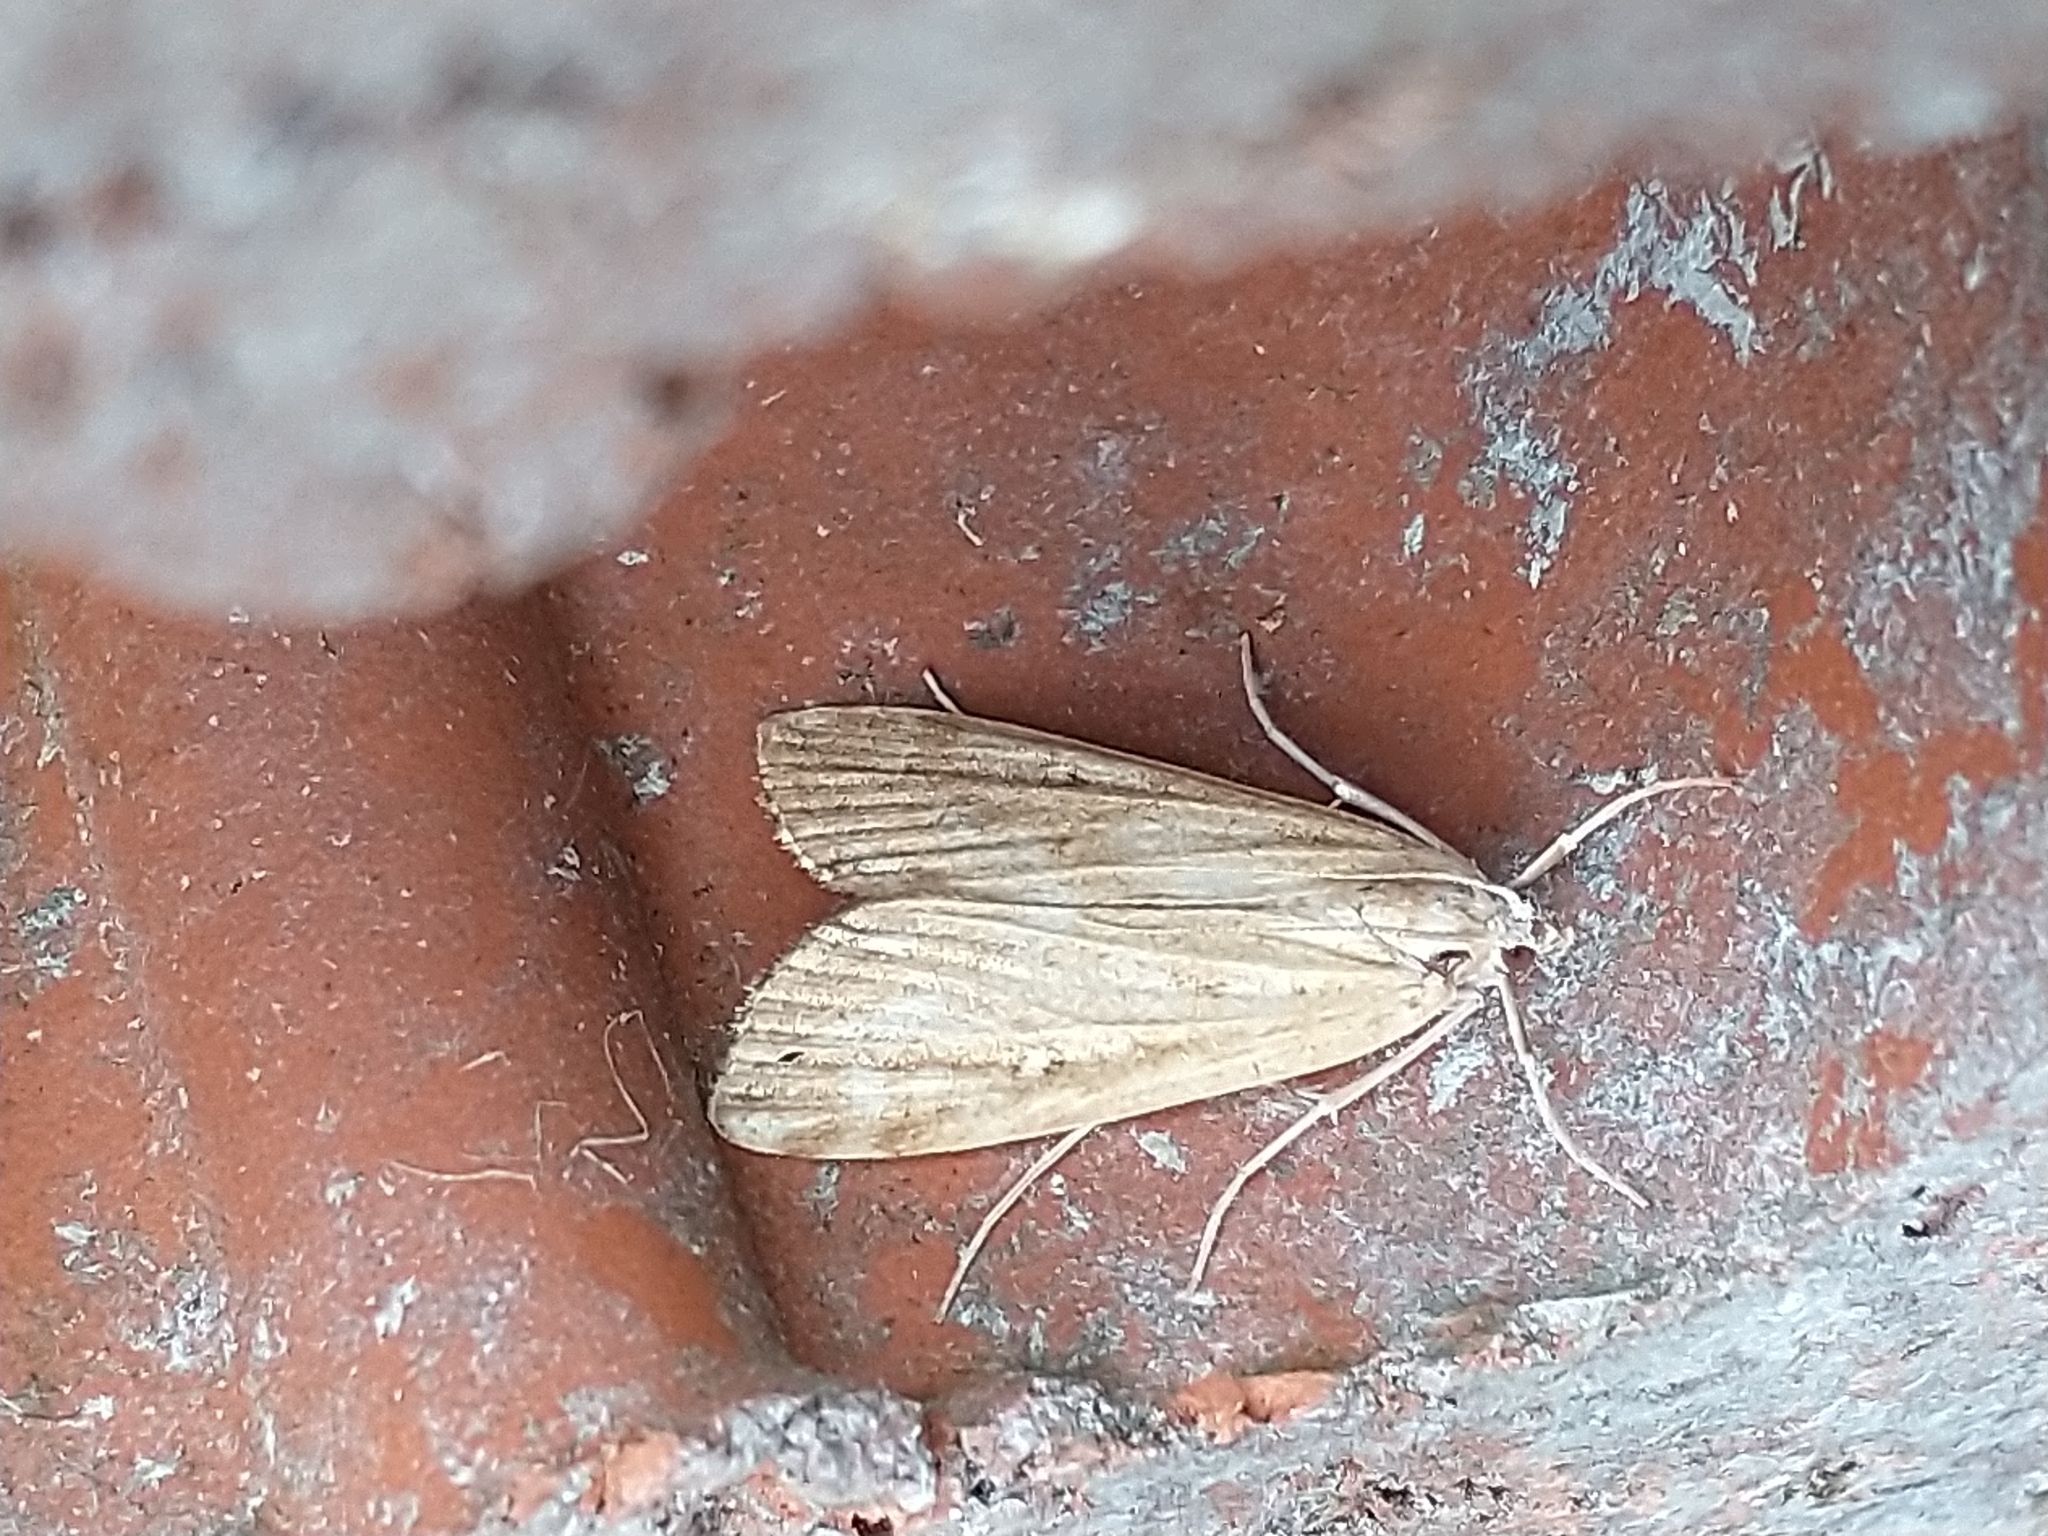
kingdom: Animalia
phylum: Arthropoda
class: Insecta
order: Lepidoptera
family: Crambidae
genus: Parapoynx
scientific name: Parapoynx stratiotata
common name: Ringed china-mark
